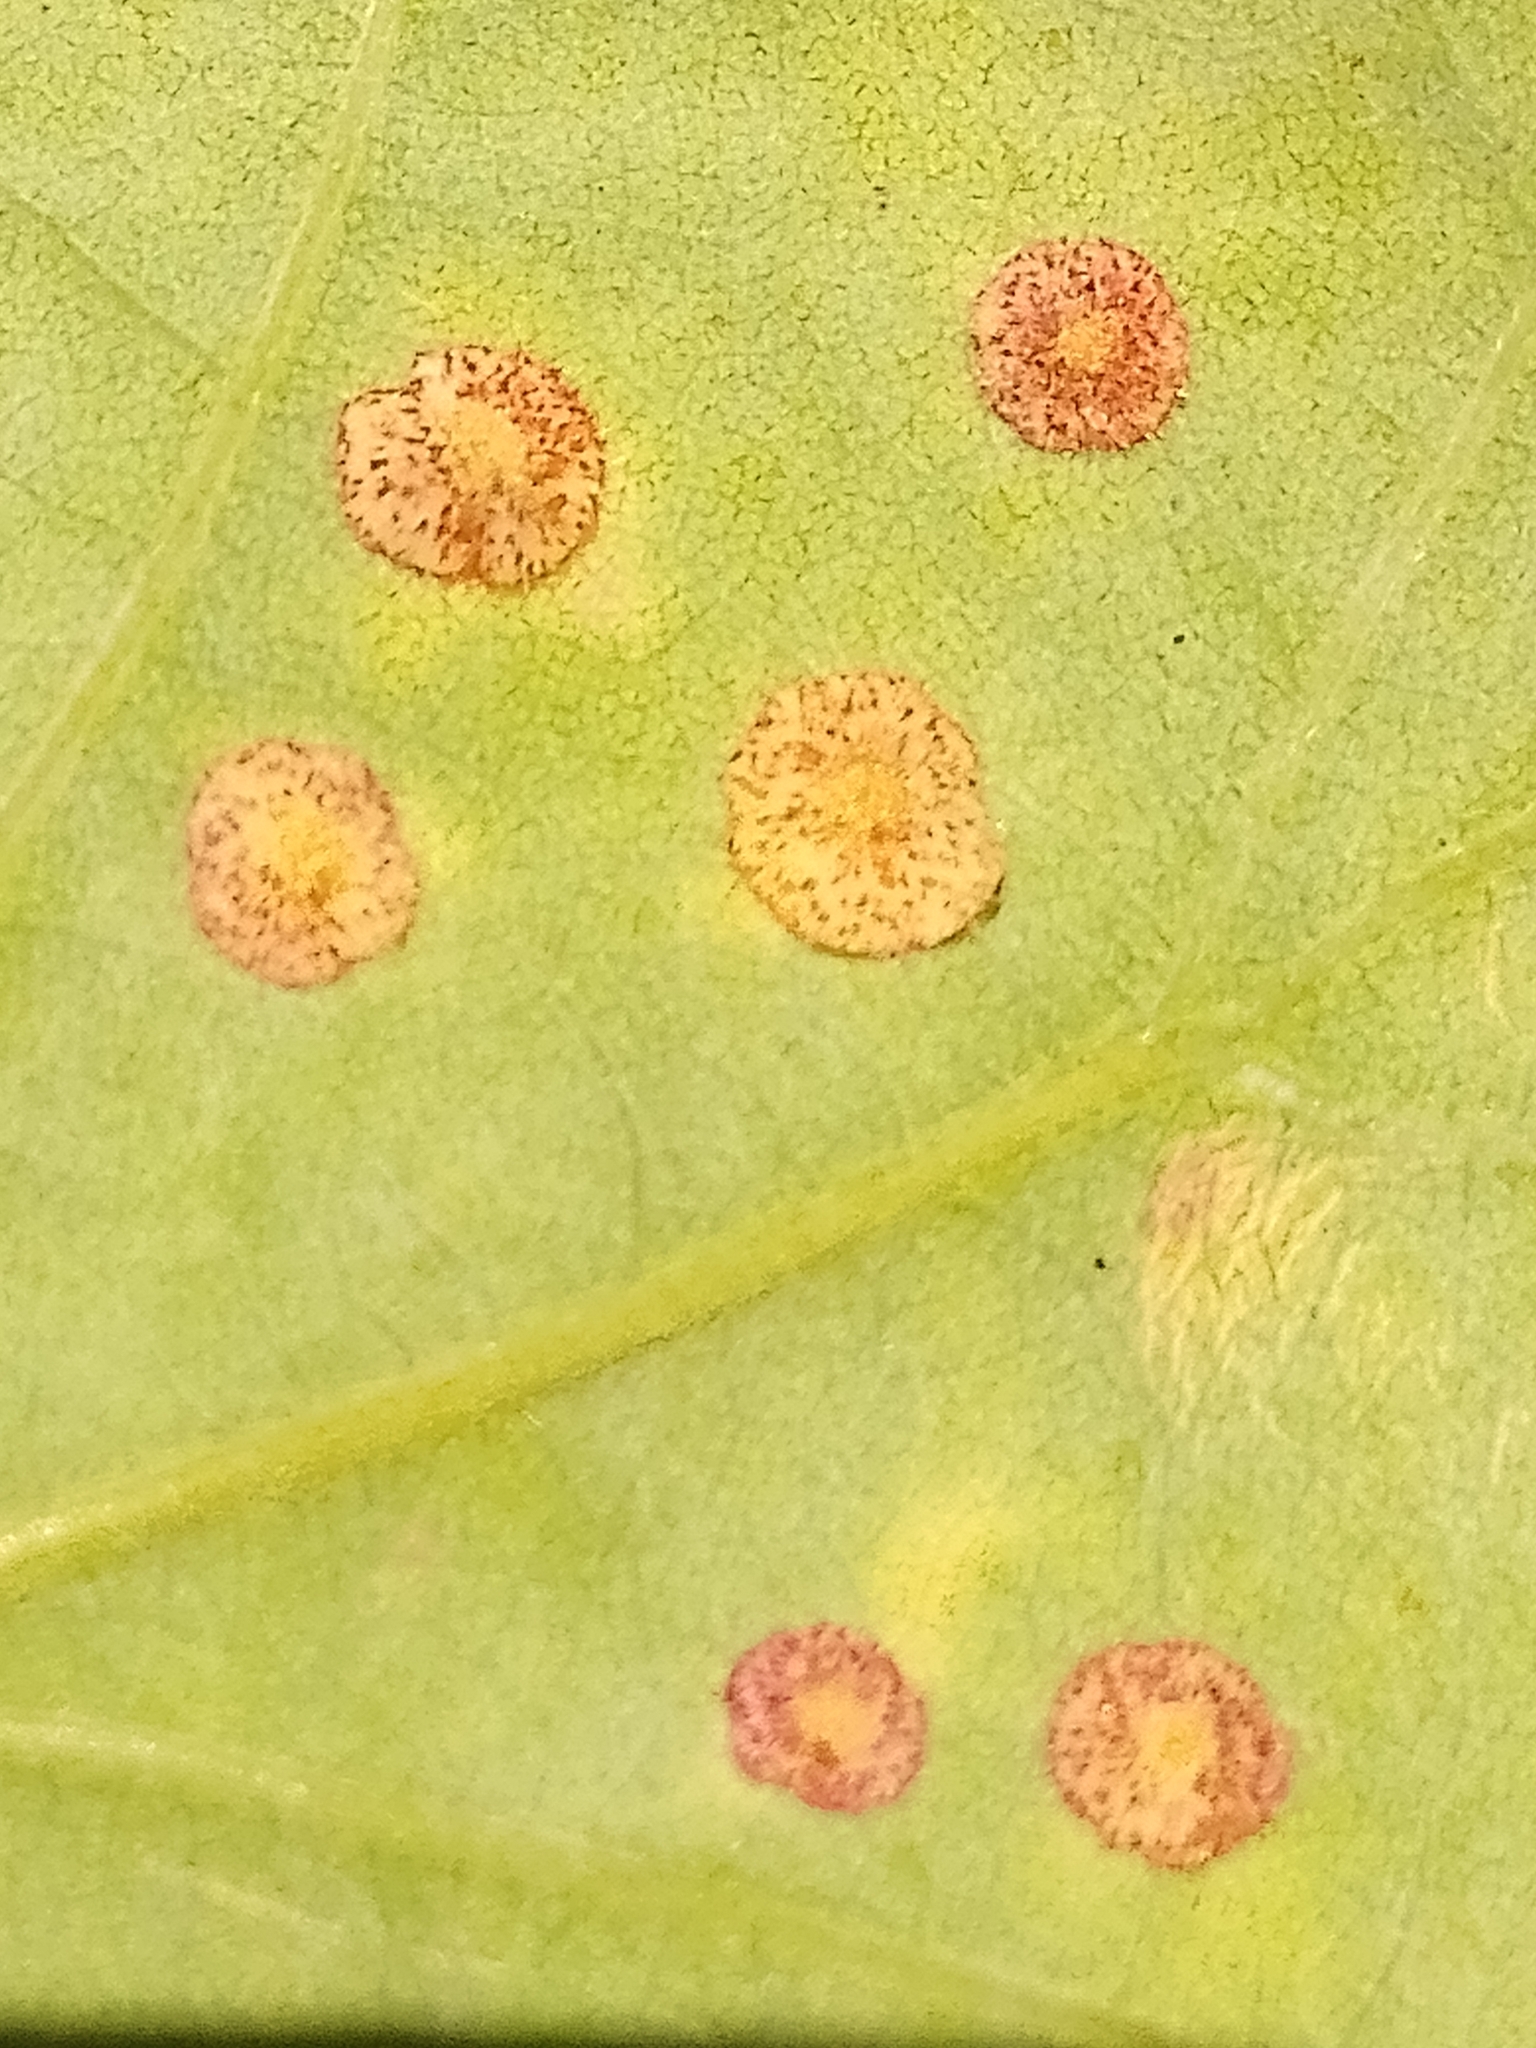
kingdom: Animalia
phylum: Arthropoda
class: Insecta
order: Hymenoptera
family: Cynipidae
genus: Neuroterus
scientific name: Neuroterus quercusbaccarum
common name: Common spangle gall
